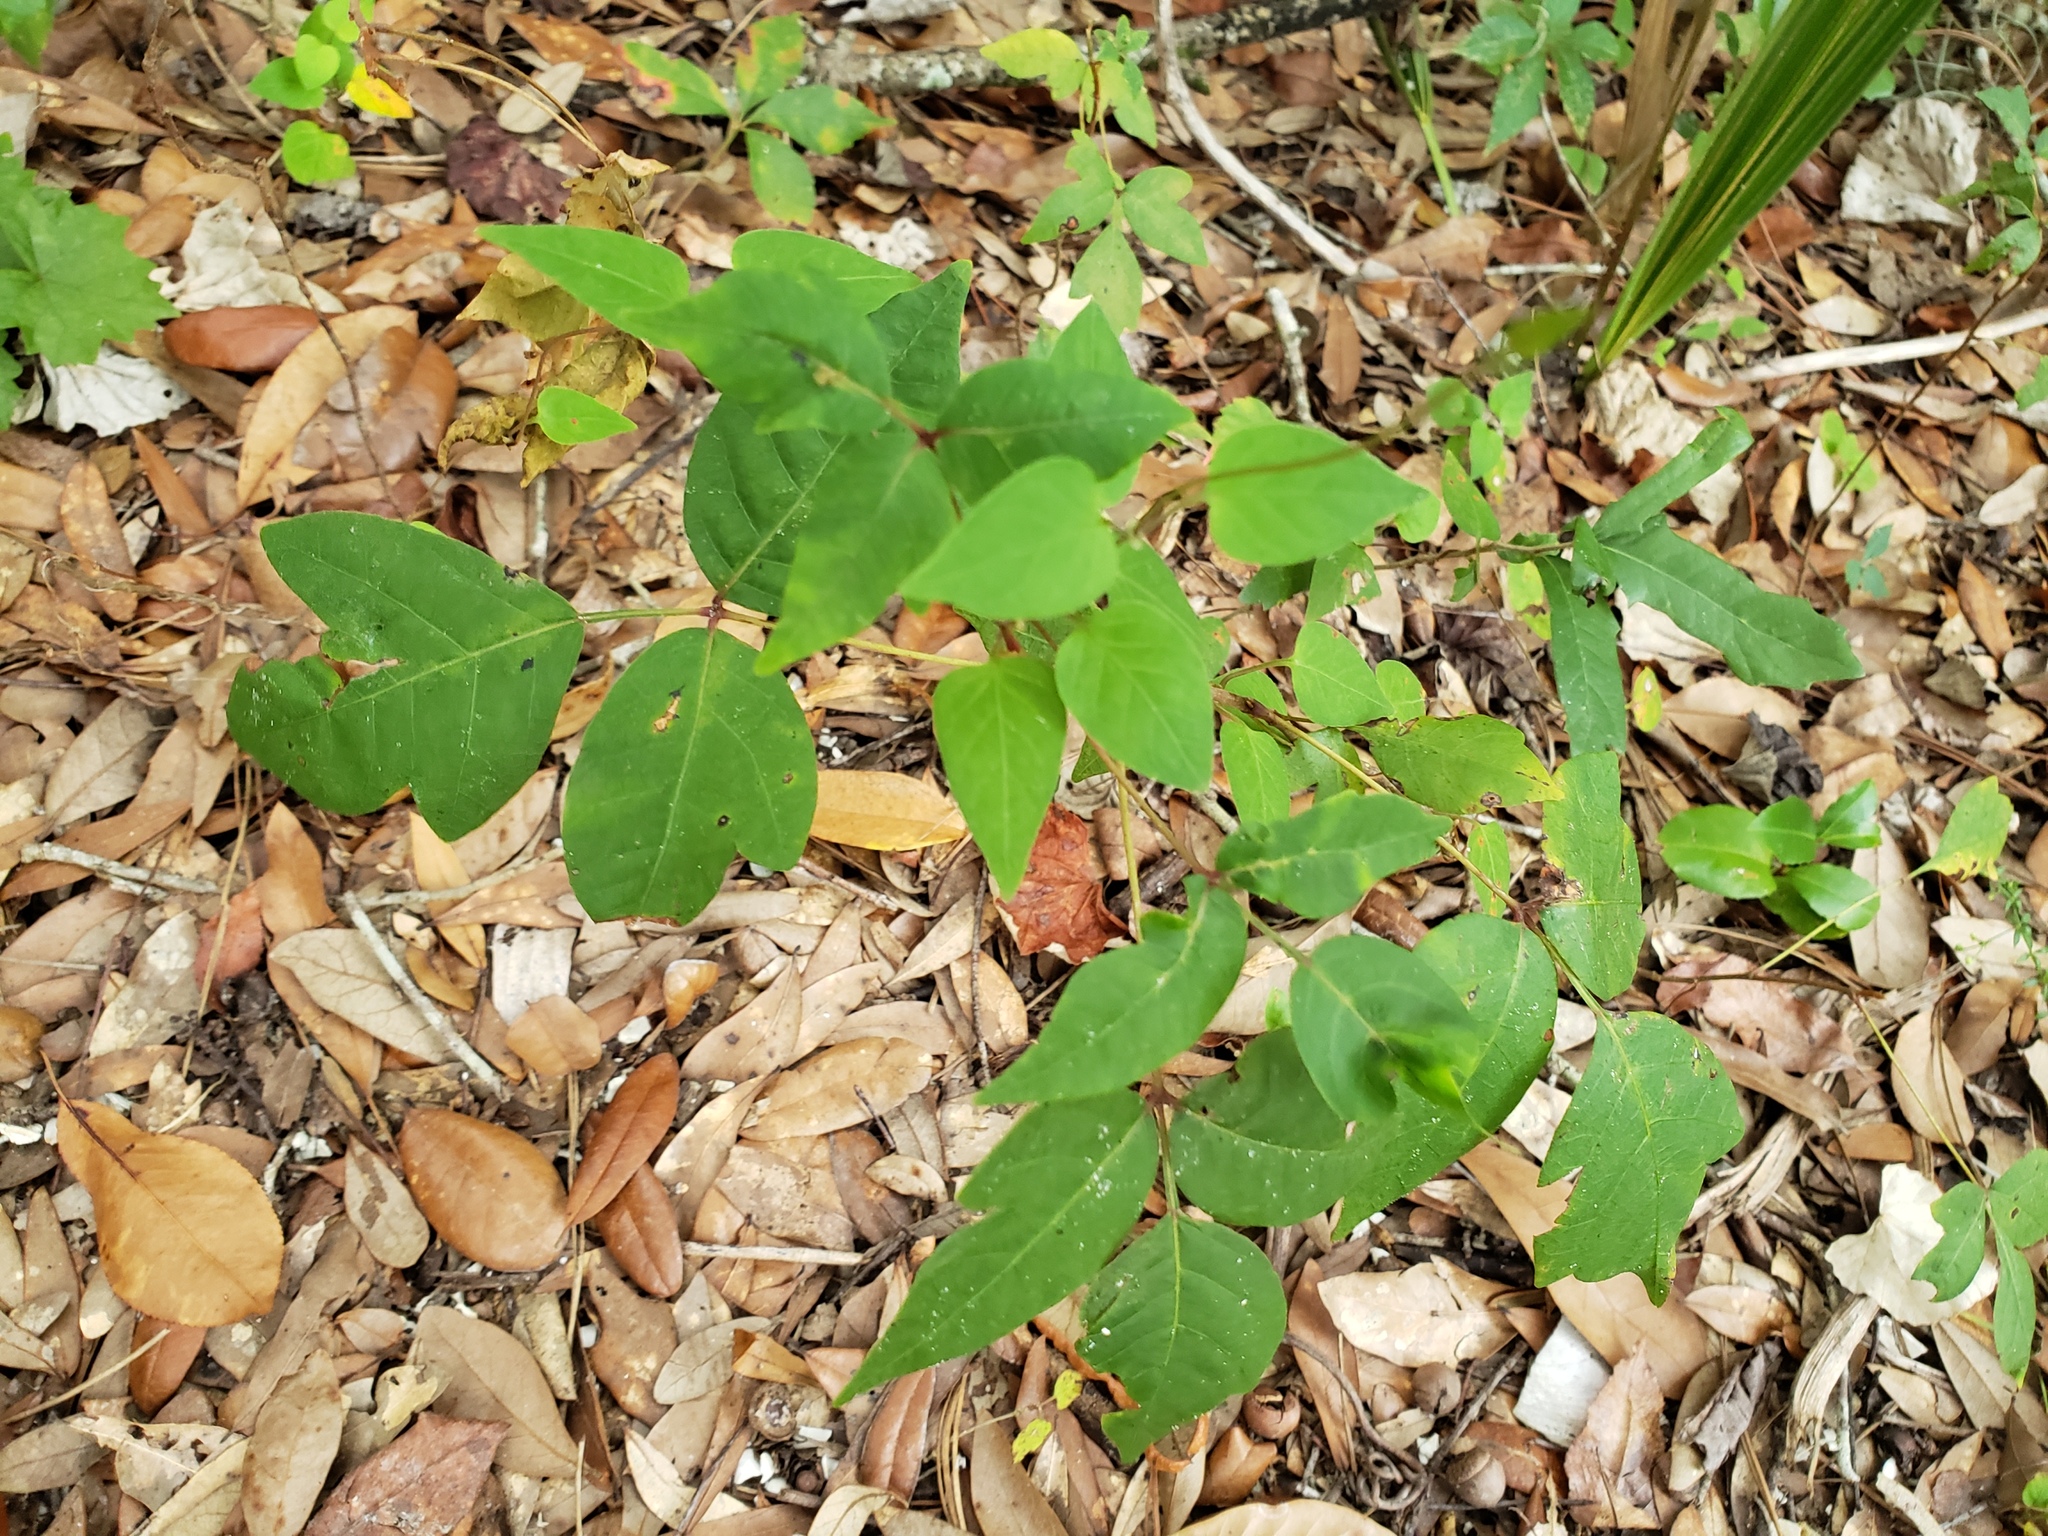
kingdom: Plantae
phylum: Tracheophyta
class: Magnoliopsida
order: Sapindales
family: Anacardiaceae
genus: Toxicodendron
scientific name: Toxicodendron radicans
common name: Poison ivy
